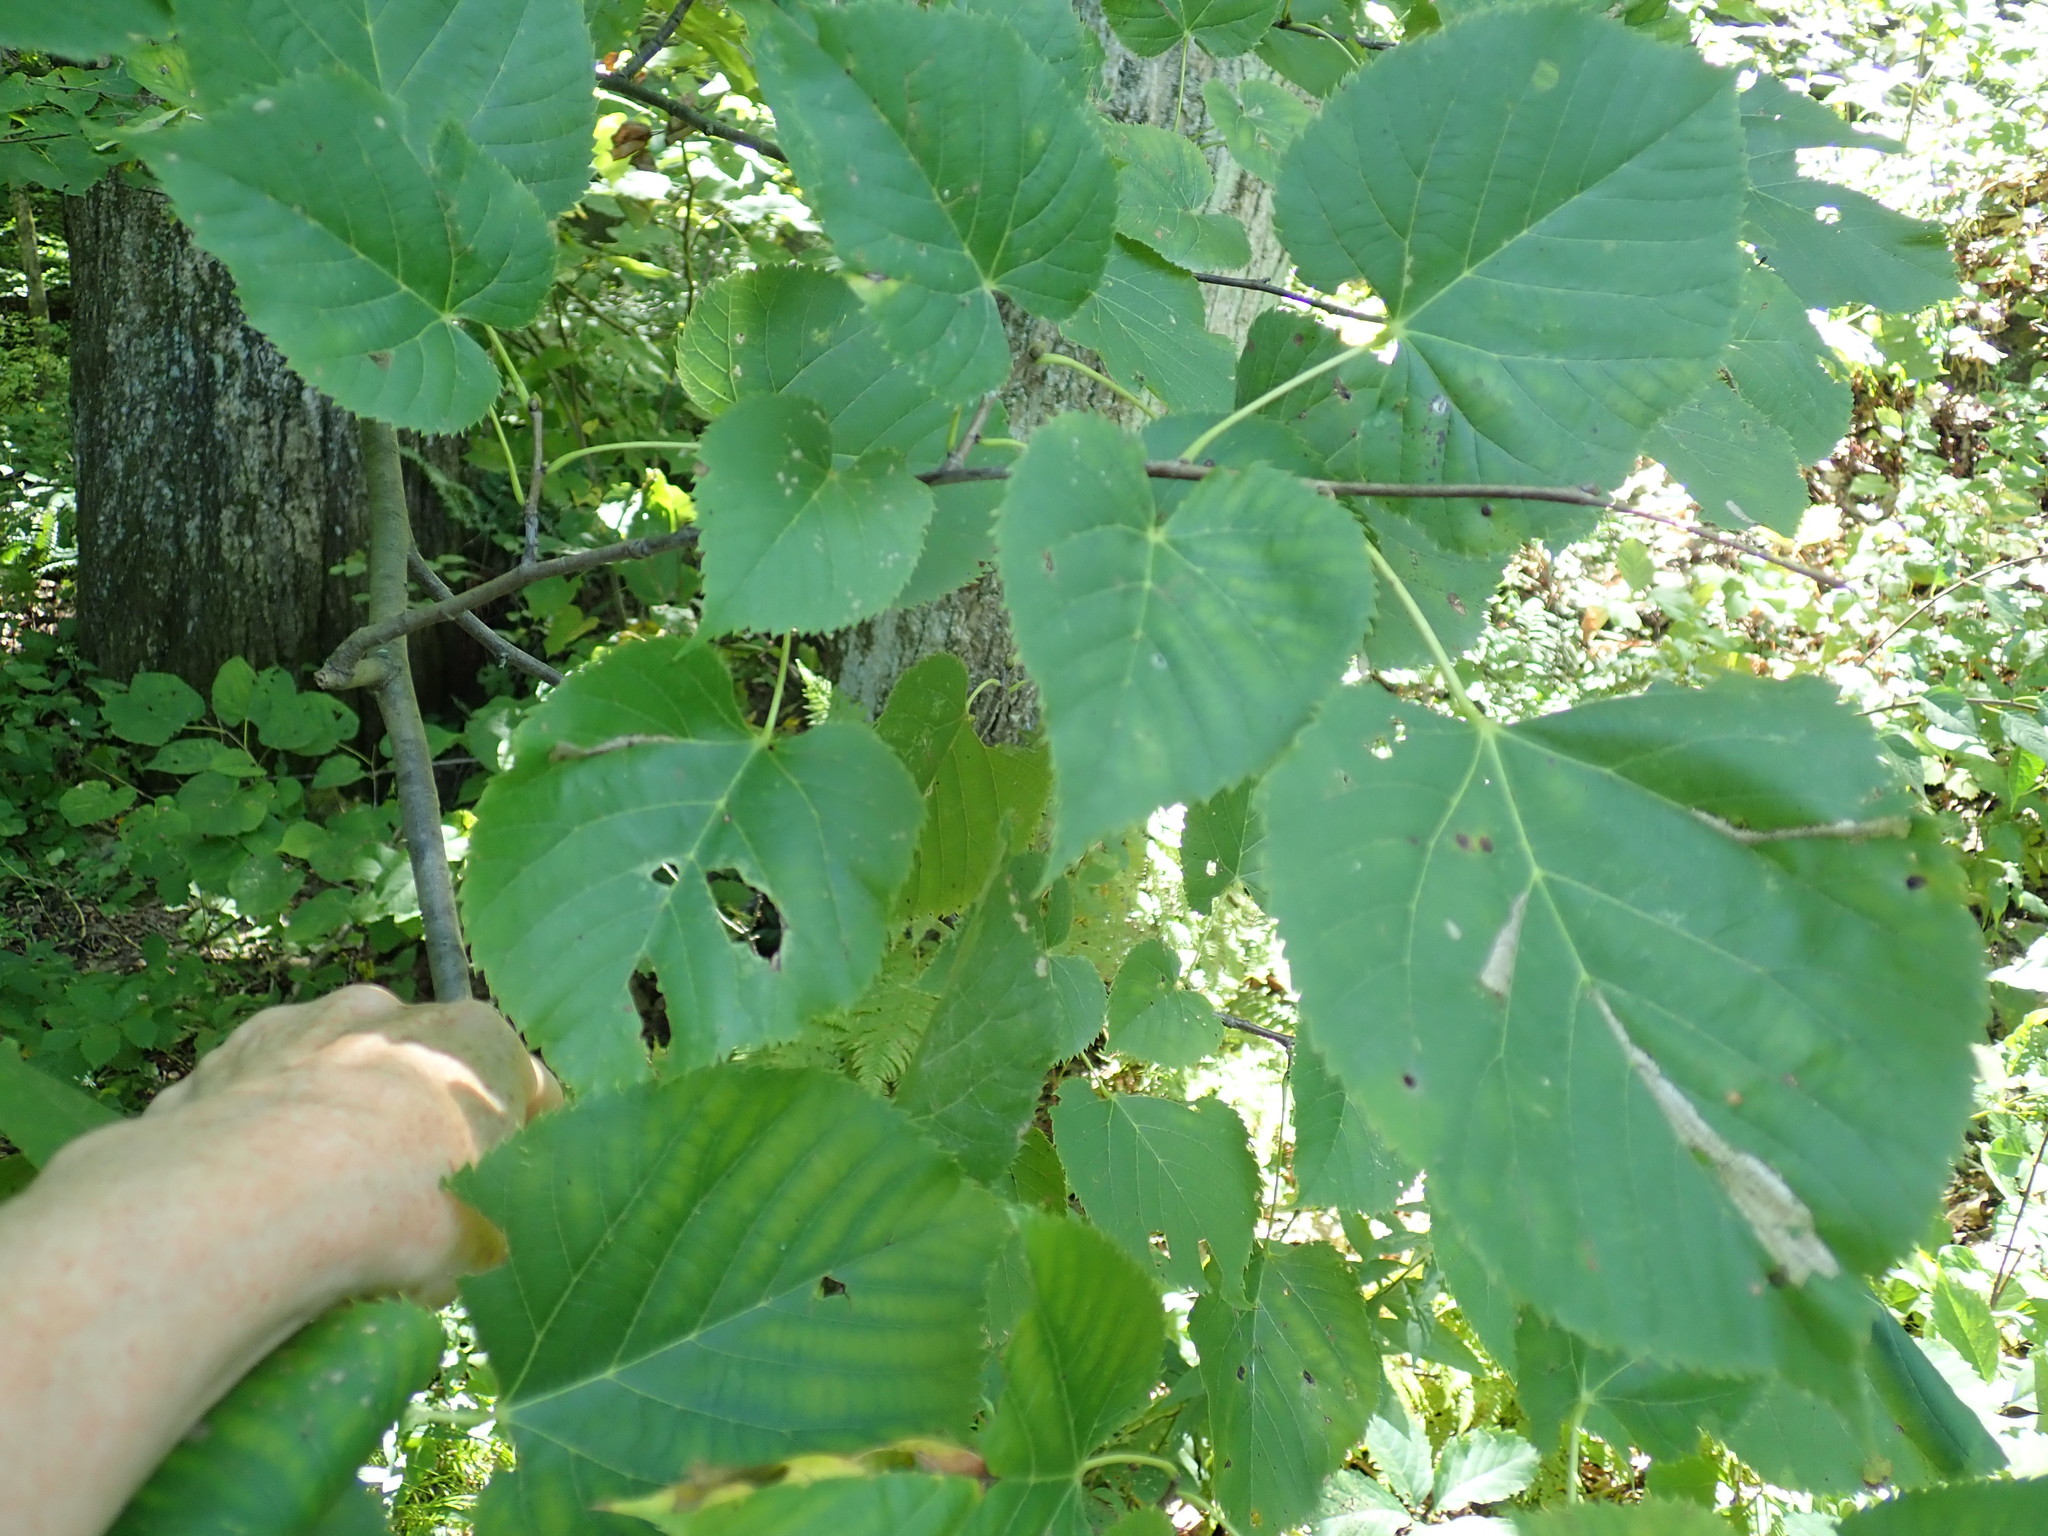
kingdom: Plantae
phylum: Tracheophyta
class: Magnoliopsida
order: Malvales
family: Malvaceae
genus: Tilia
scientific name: Tilia americana
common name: Basswood
